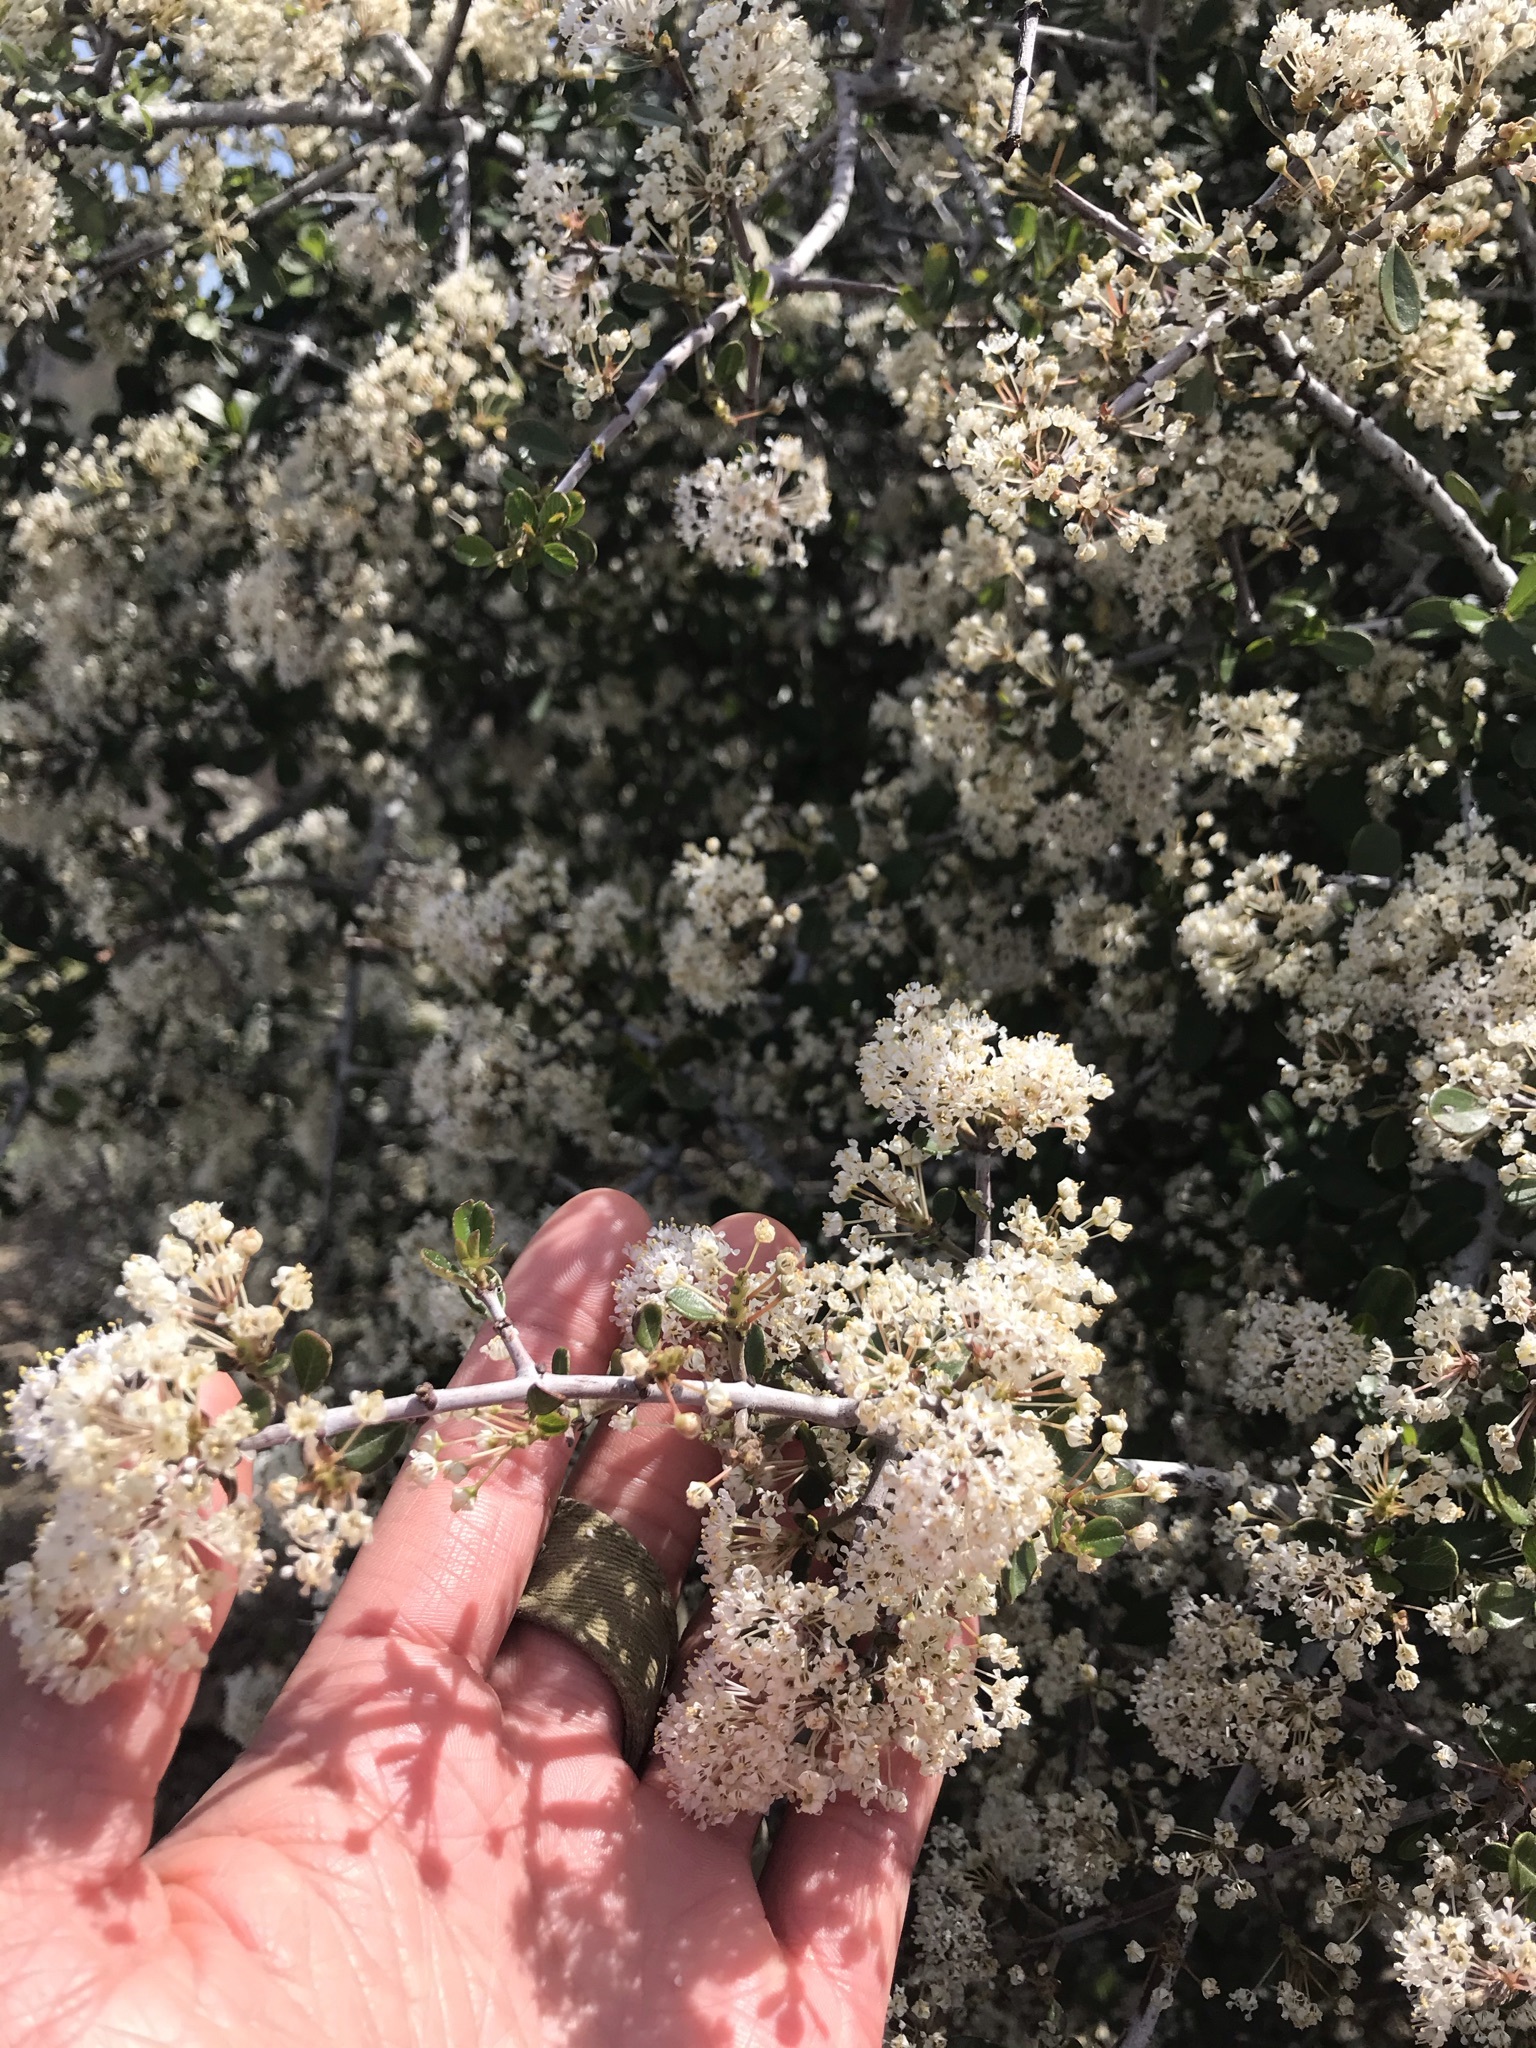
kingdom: Plantae
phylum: Tracheophyta
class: Magnoliopsida
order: Rosales
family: Rhamnaceae
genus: Ceanothus
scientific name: Ceanothus cuneatus
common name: Cuneate ceanothus
